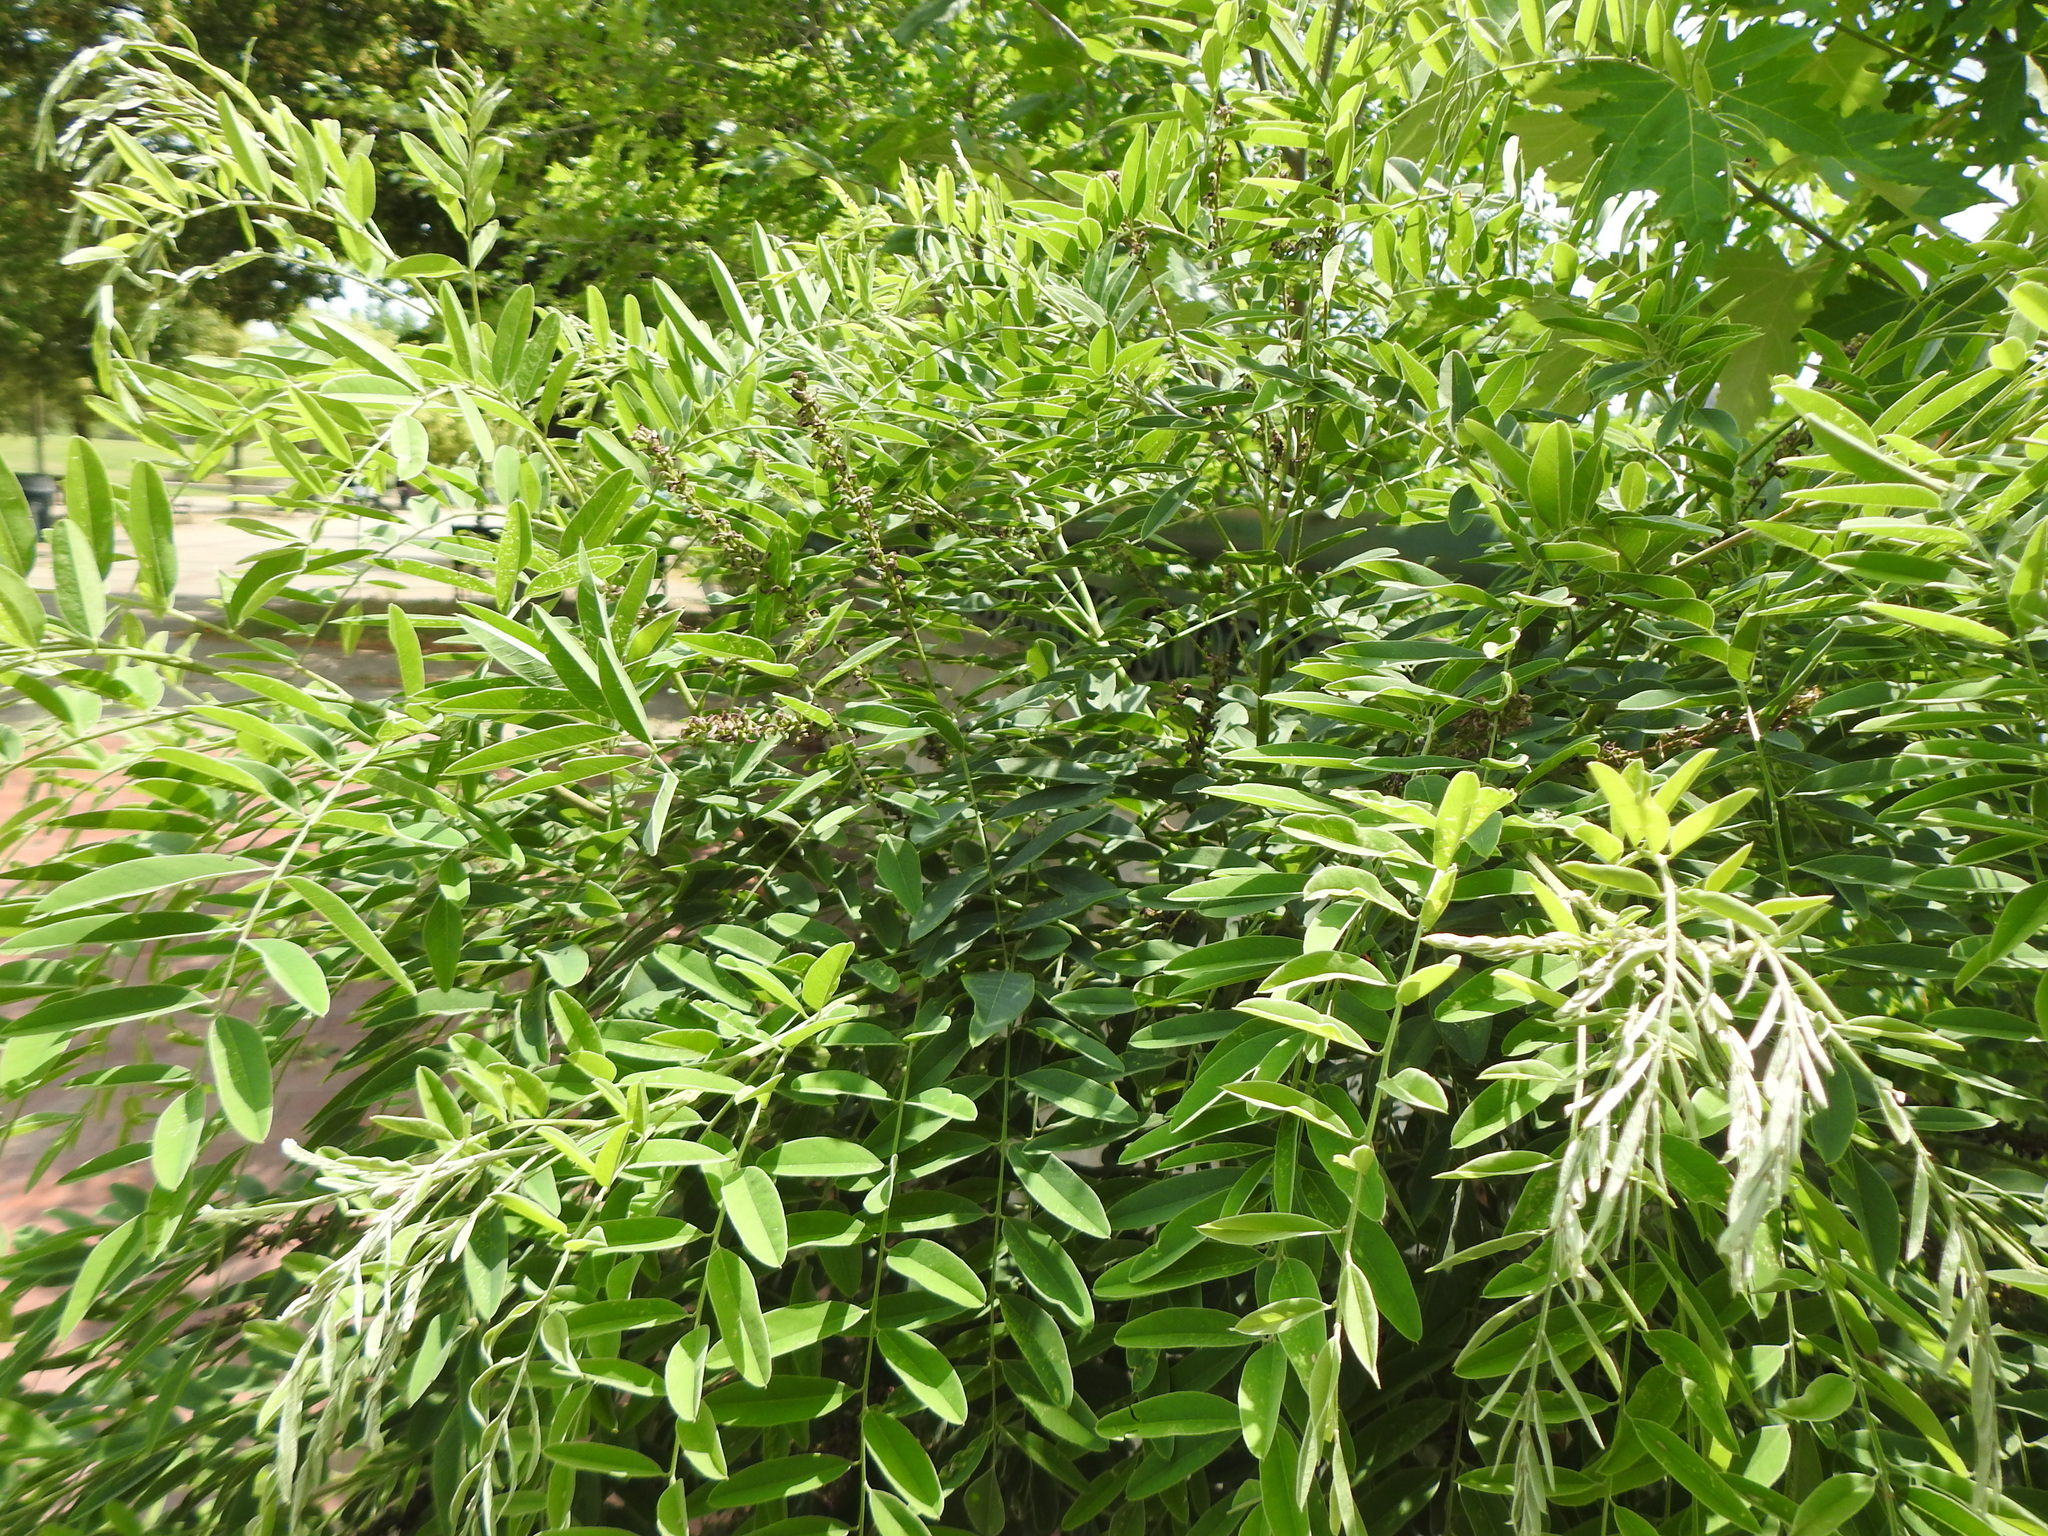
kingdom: Plantae
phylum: Tracheophyta
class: Magnoliopsida
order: Fabales
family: Fabaceae
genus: Amorpha
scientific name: Amorpha fruticosa
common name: False indigo
